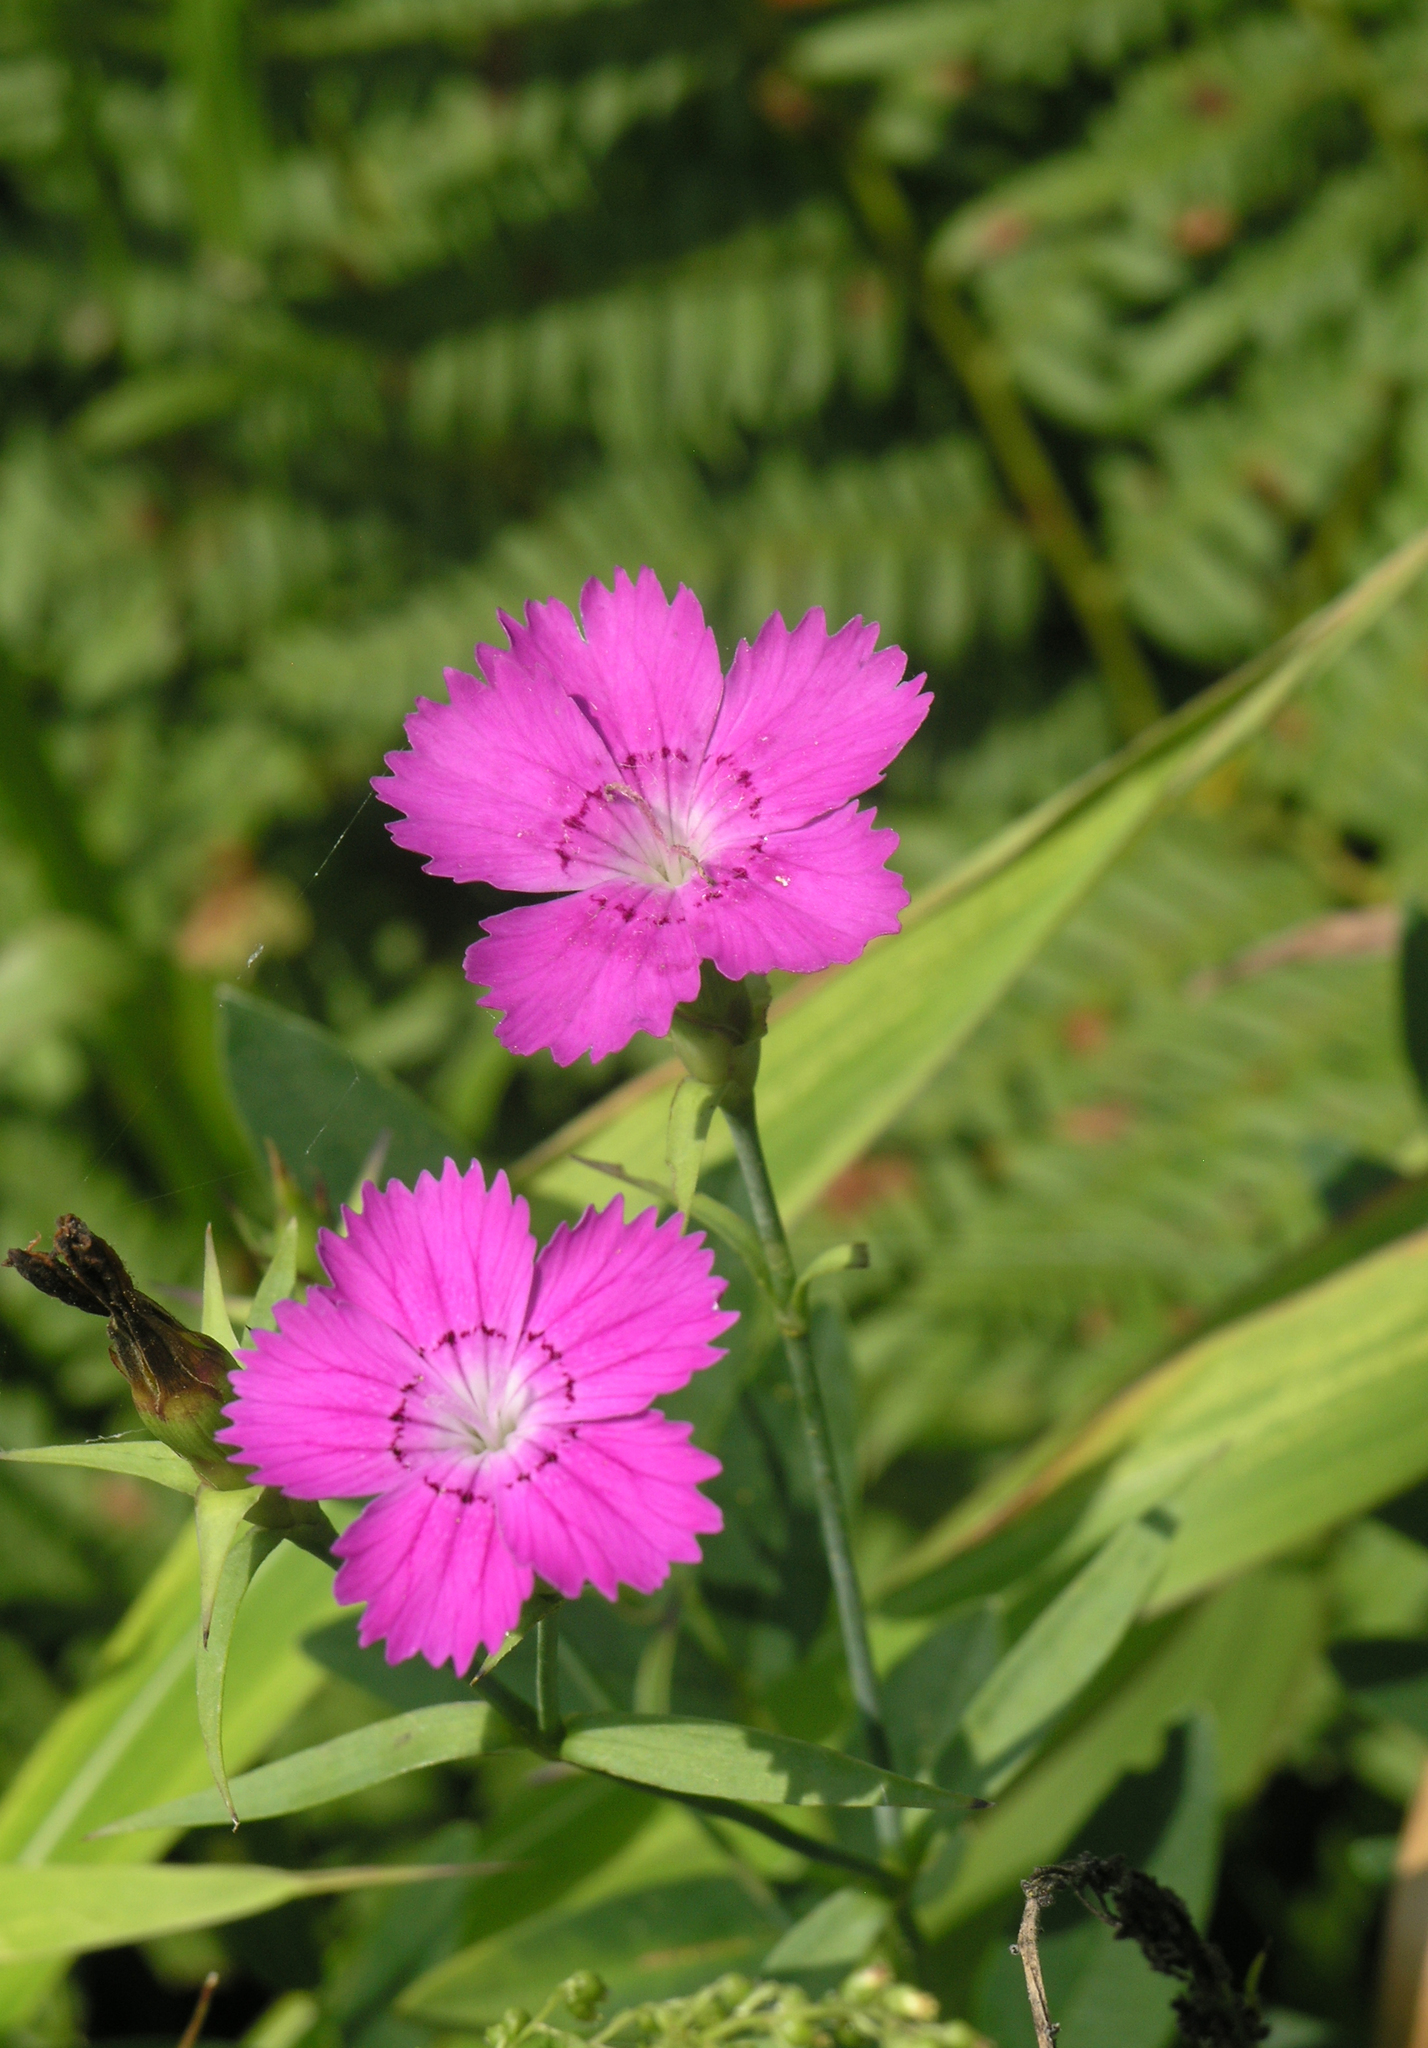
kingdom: Plantae
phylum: Tracheophyta
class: Magnoliopsida
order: Caryophyllales
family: Caryophyllaceae
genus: Dianthus
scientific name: Dianthus chinensis
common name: Rainbow pink
